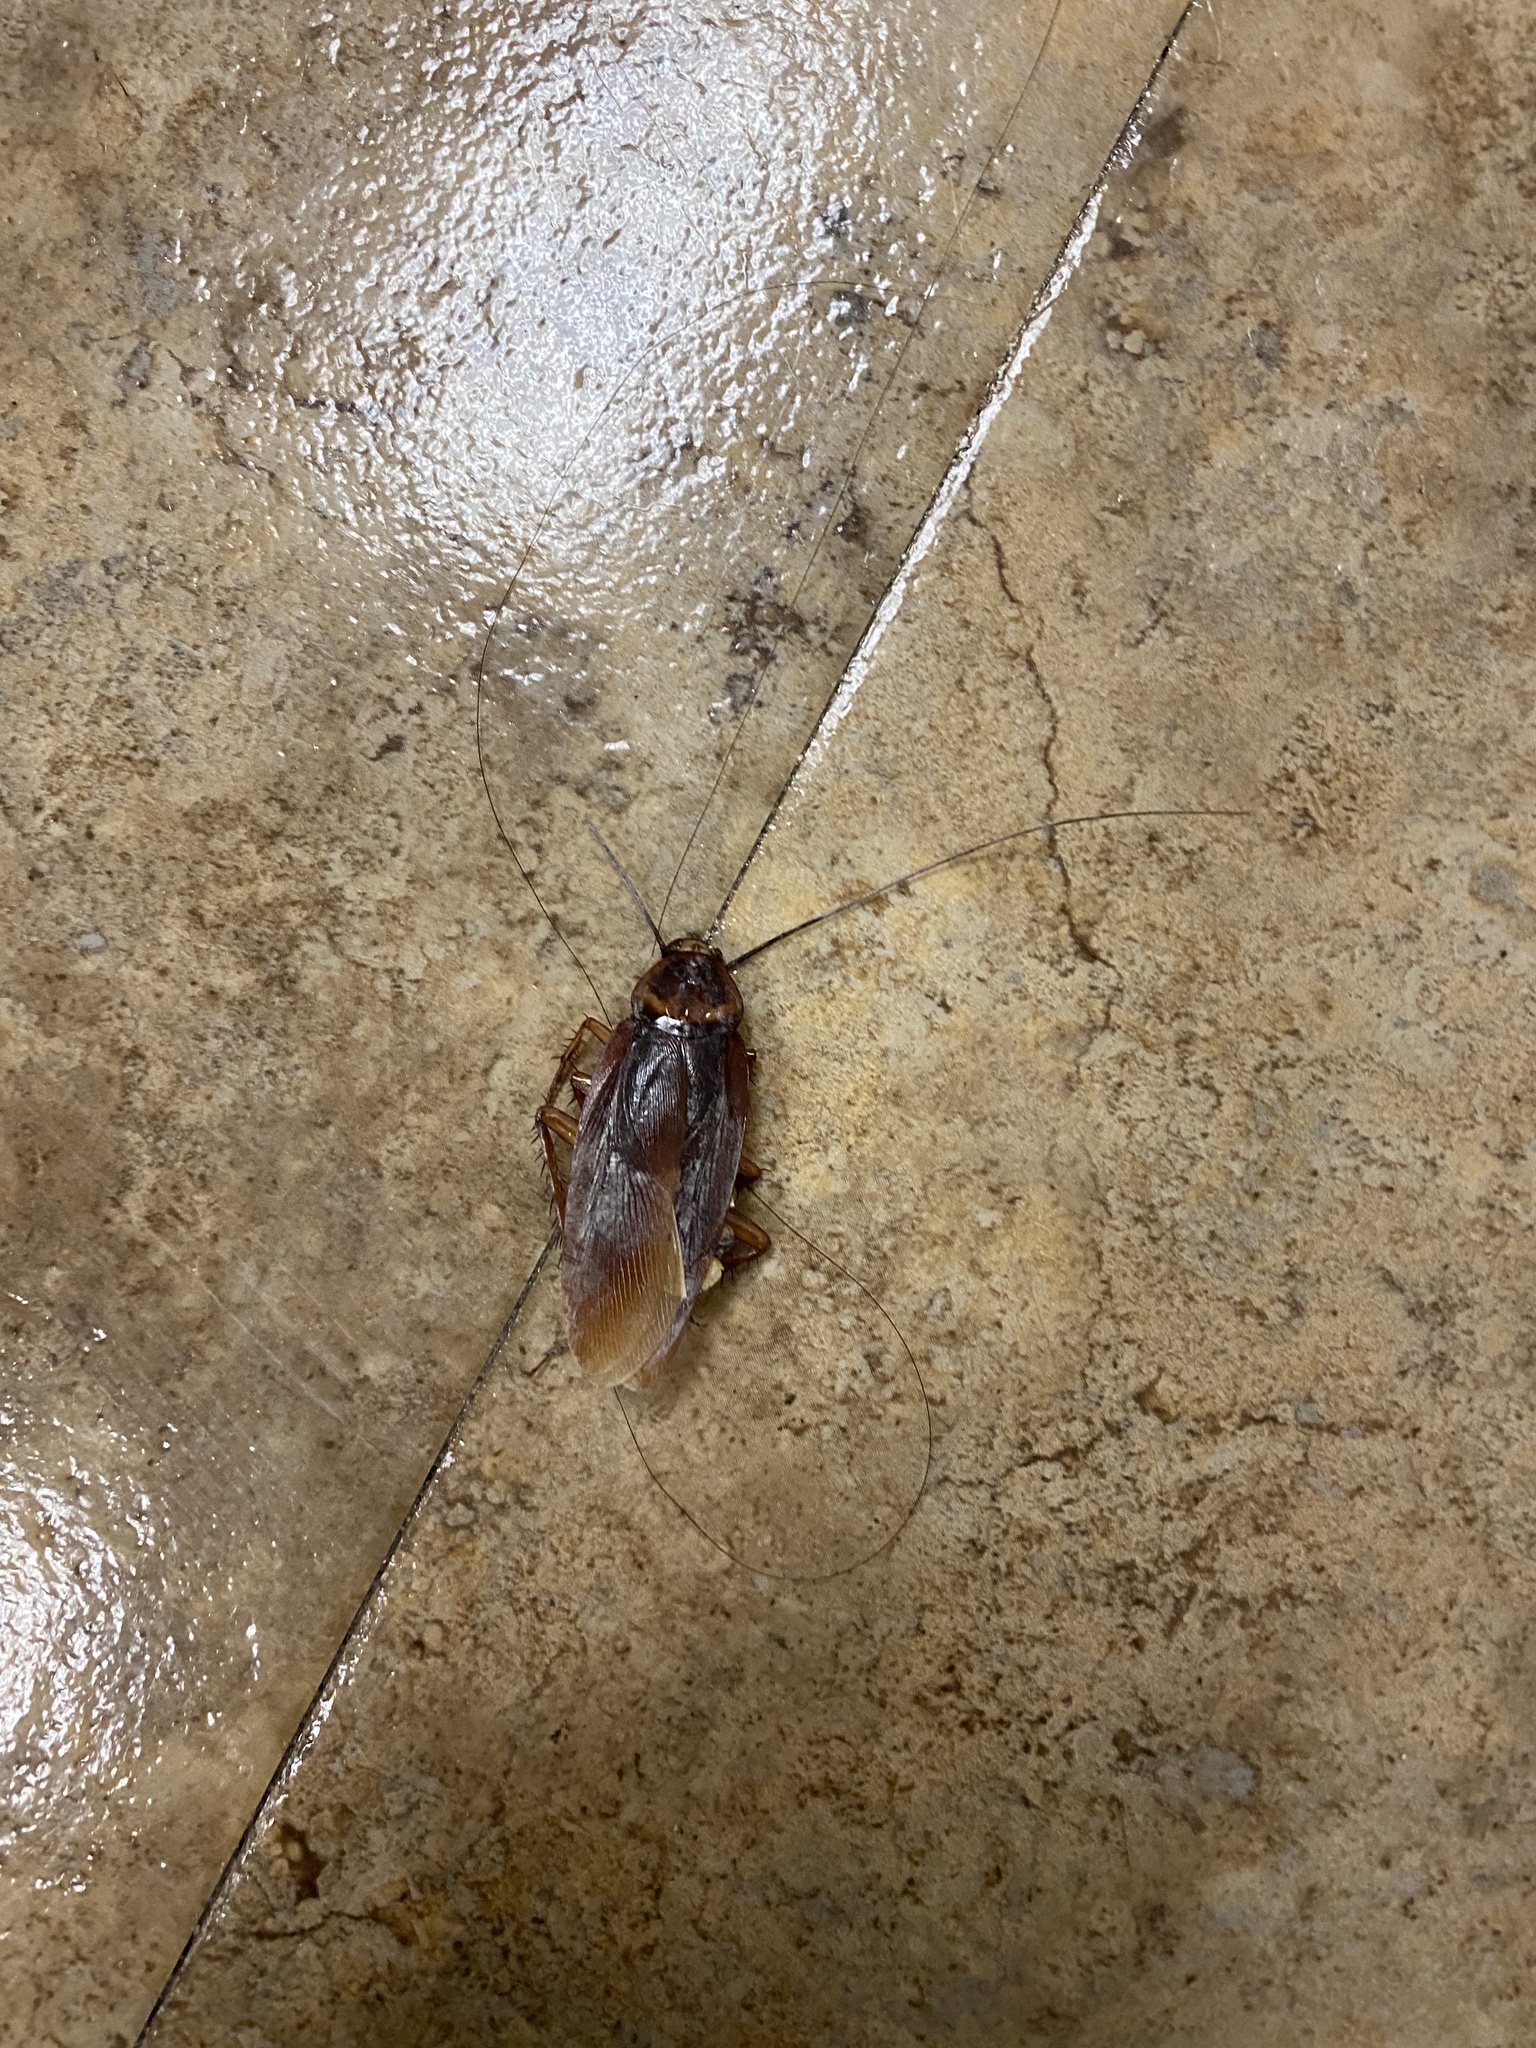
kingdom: Animalia
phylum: Arthropoda
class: Insecta
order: Blattodea
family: Blattidae
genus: Periplaneta
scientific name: Periplaneta americana
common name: American cockroach
